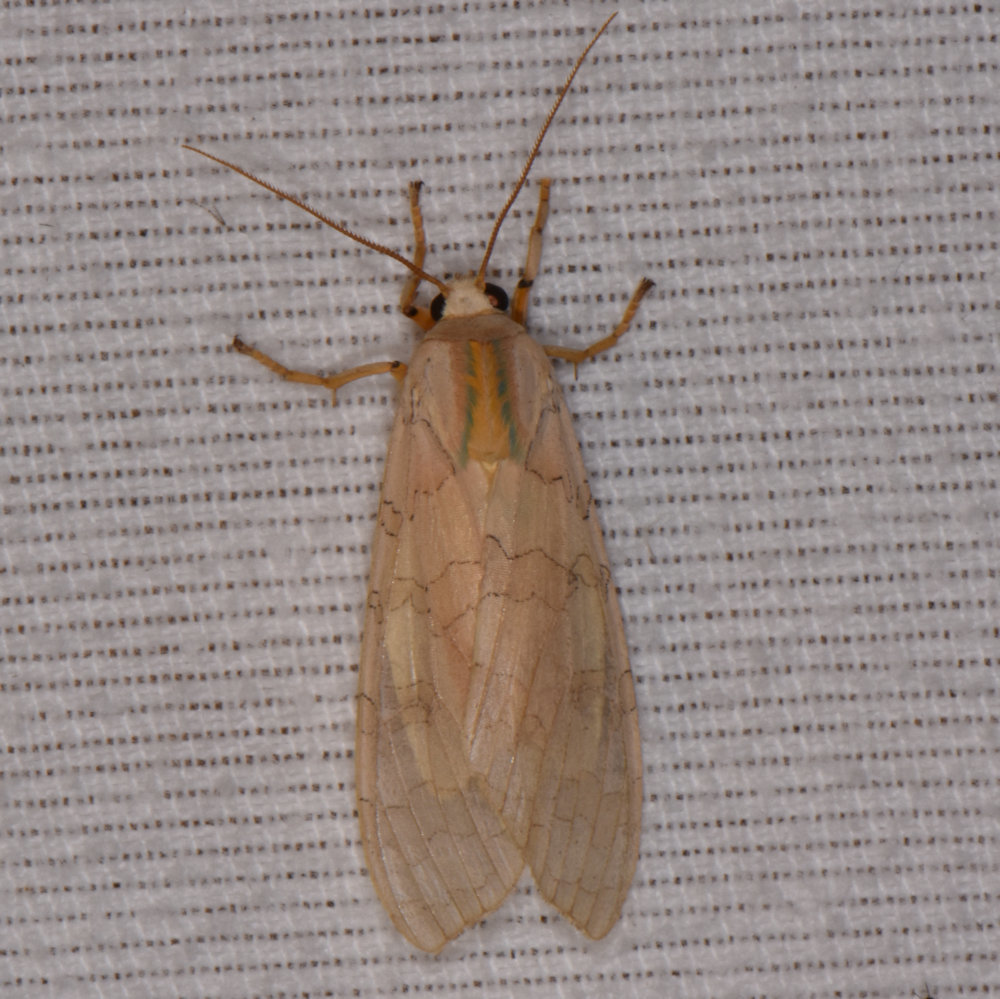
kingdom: Animalia
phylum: Arthropoda
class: Insecta
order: Lepidoptera
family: Erebidae
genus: Halysidota
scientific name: Halysidota tessellaris
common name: Banded tussock moth
